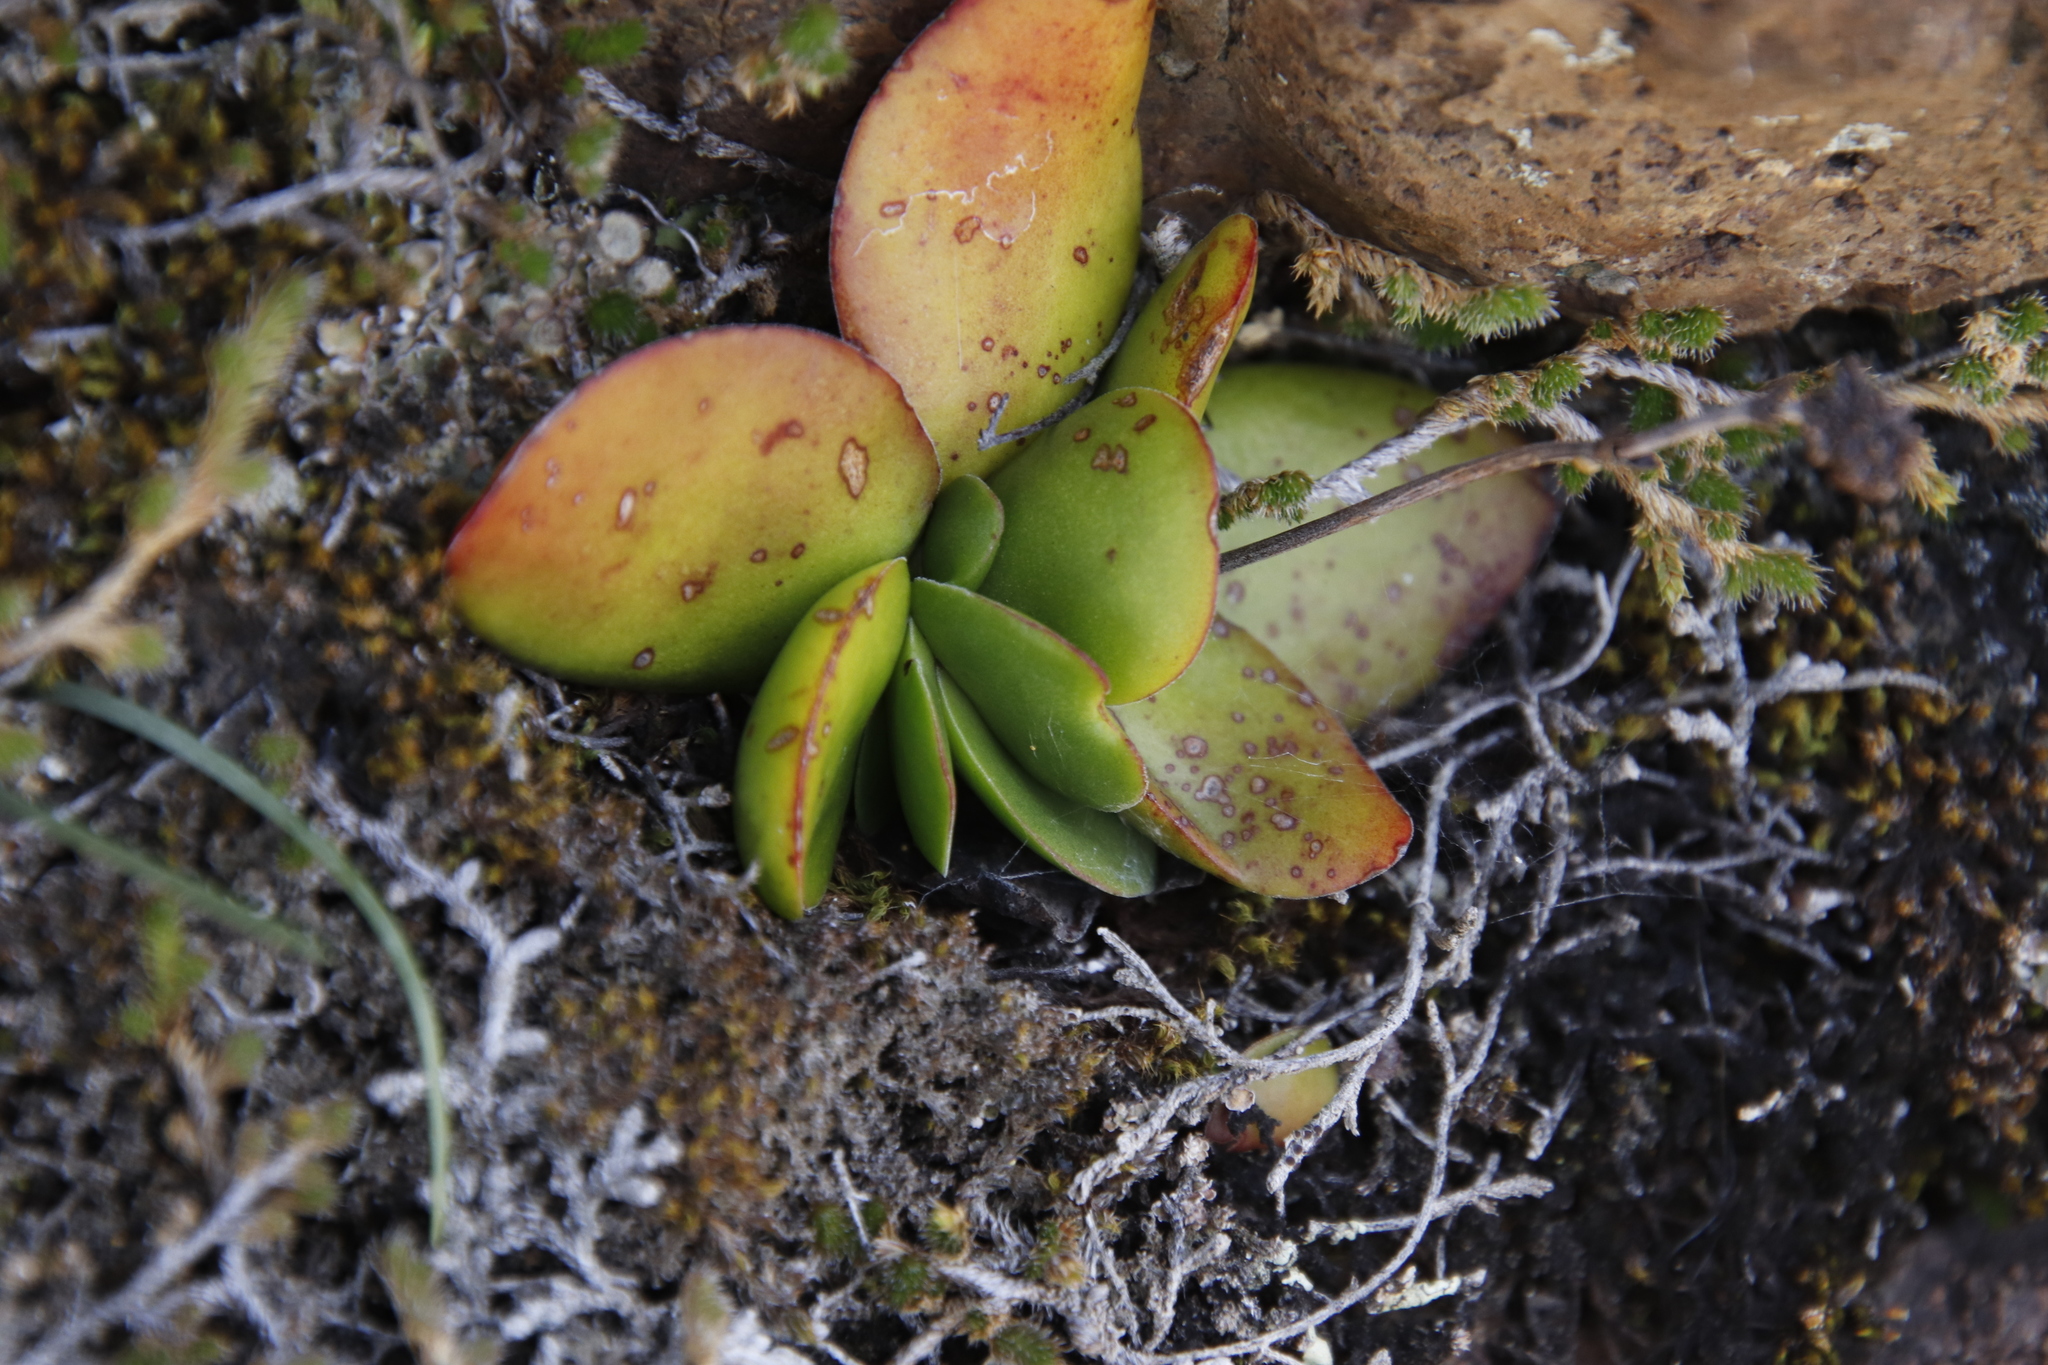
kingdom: Plantae
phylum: Tracheophyta
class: Magnoliopsida
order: Saxifragales
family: Crassulaceae
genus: Crassula
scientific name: Crassula nudicaulis
